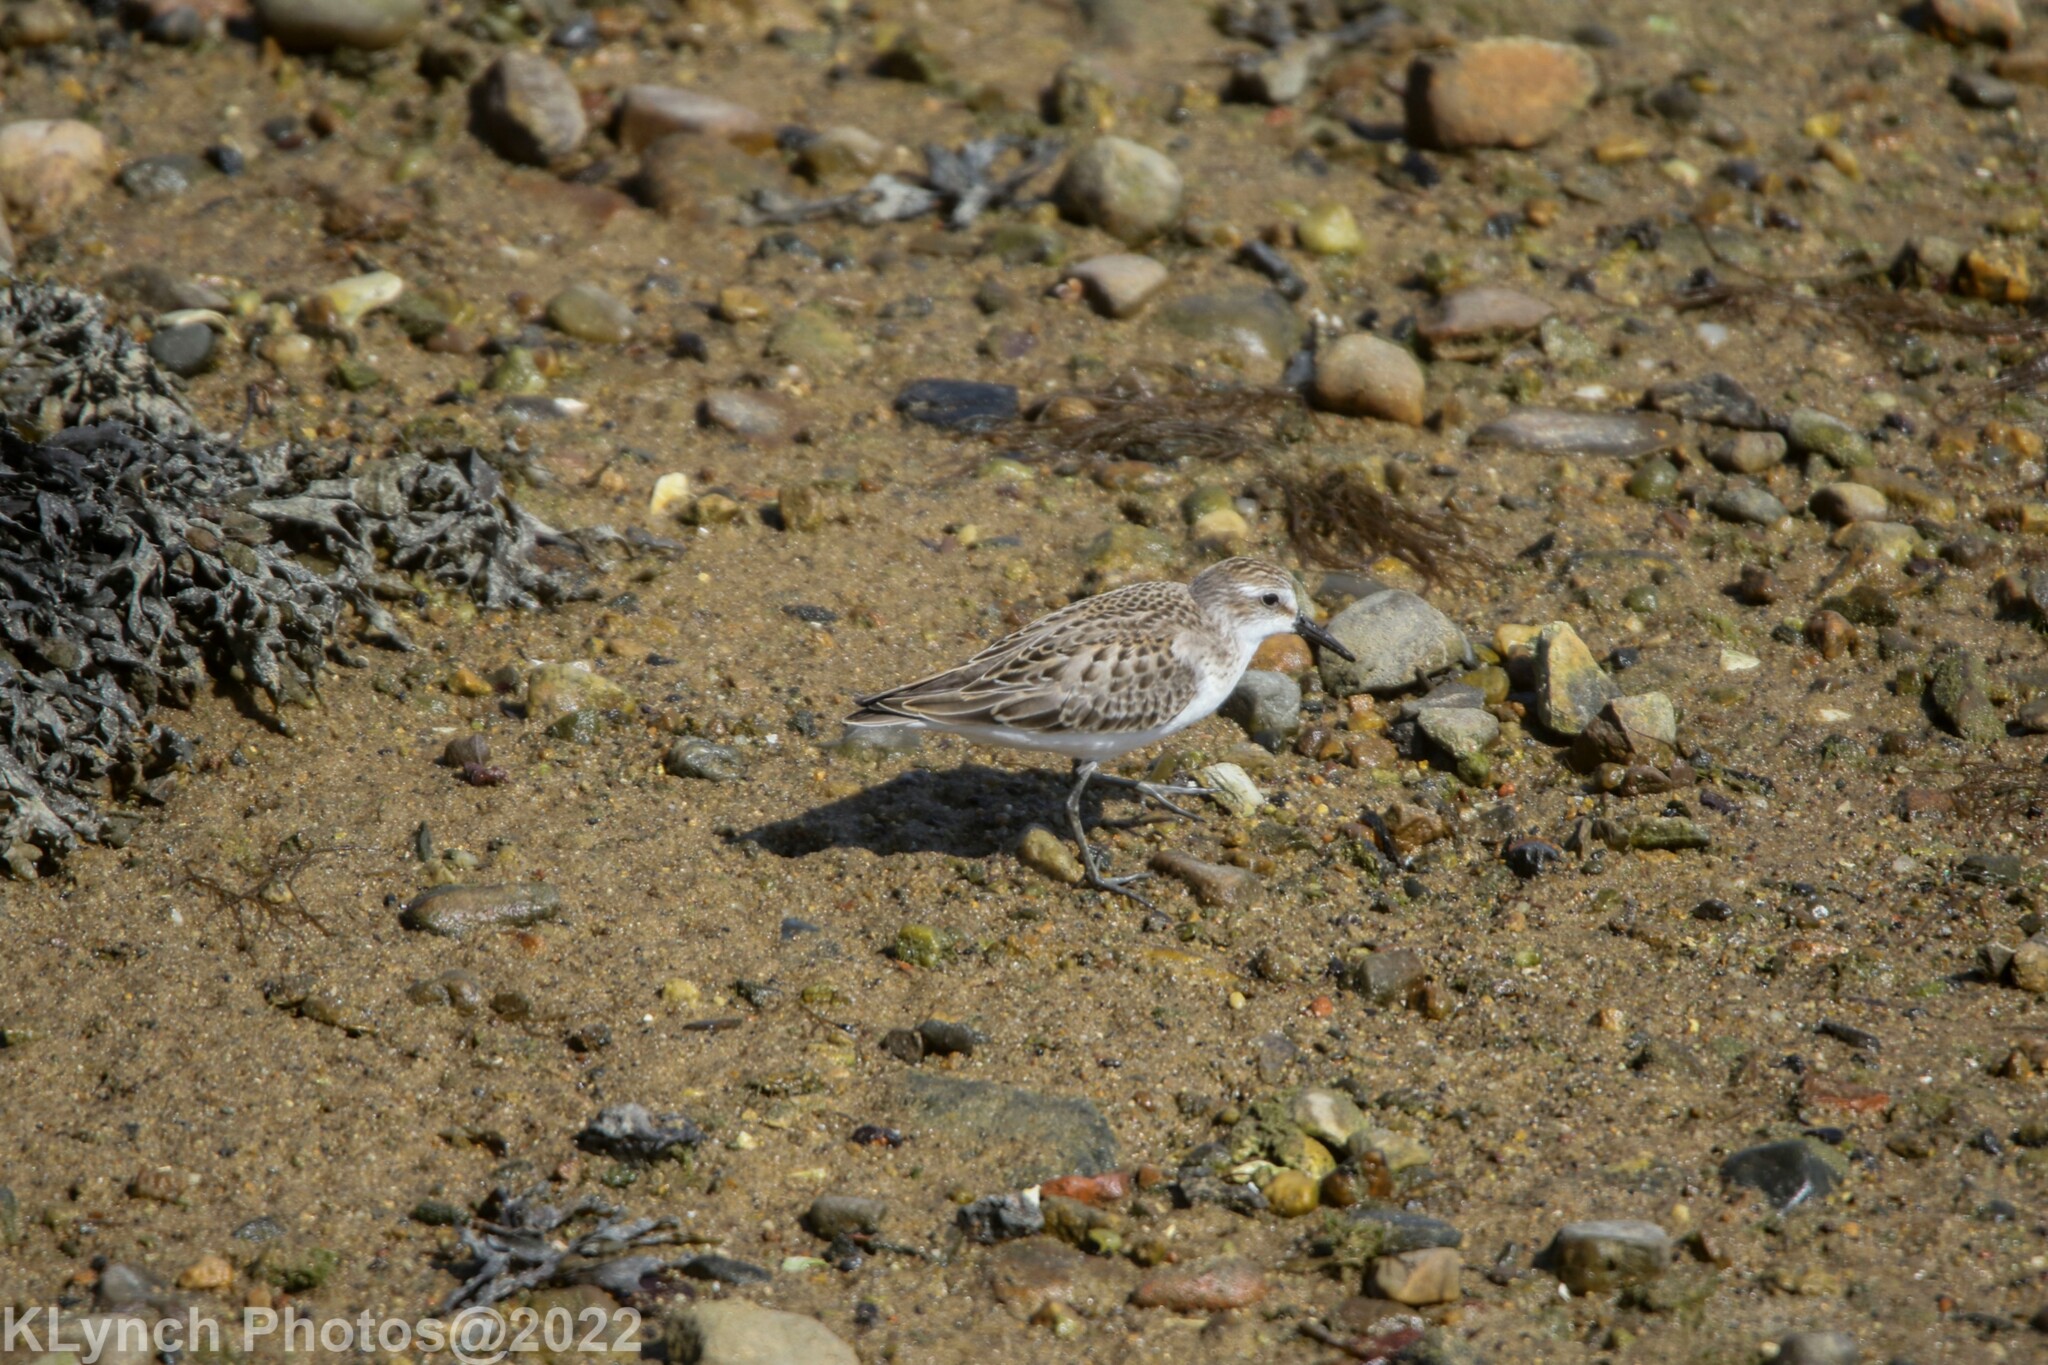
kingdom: Animalia
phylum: Chordata
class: Aves
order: Charadriiformes
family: Scolopacidae
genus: Calidris
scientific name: Calidris pusilla
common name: Semipalmated sandpiper
